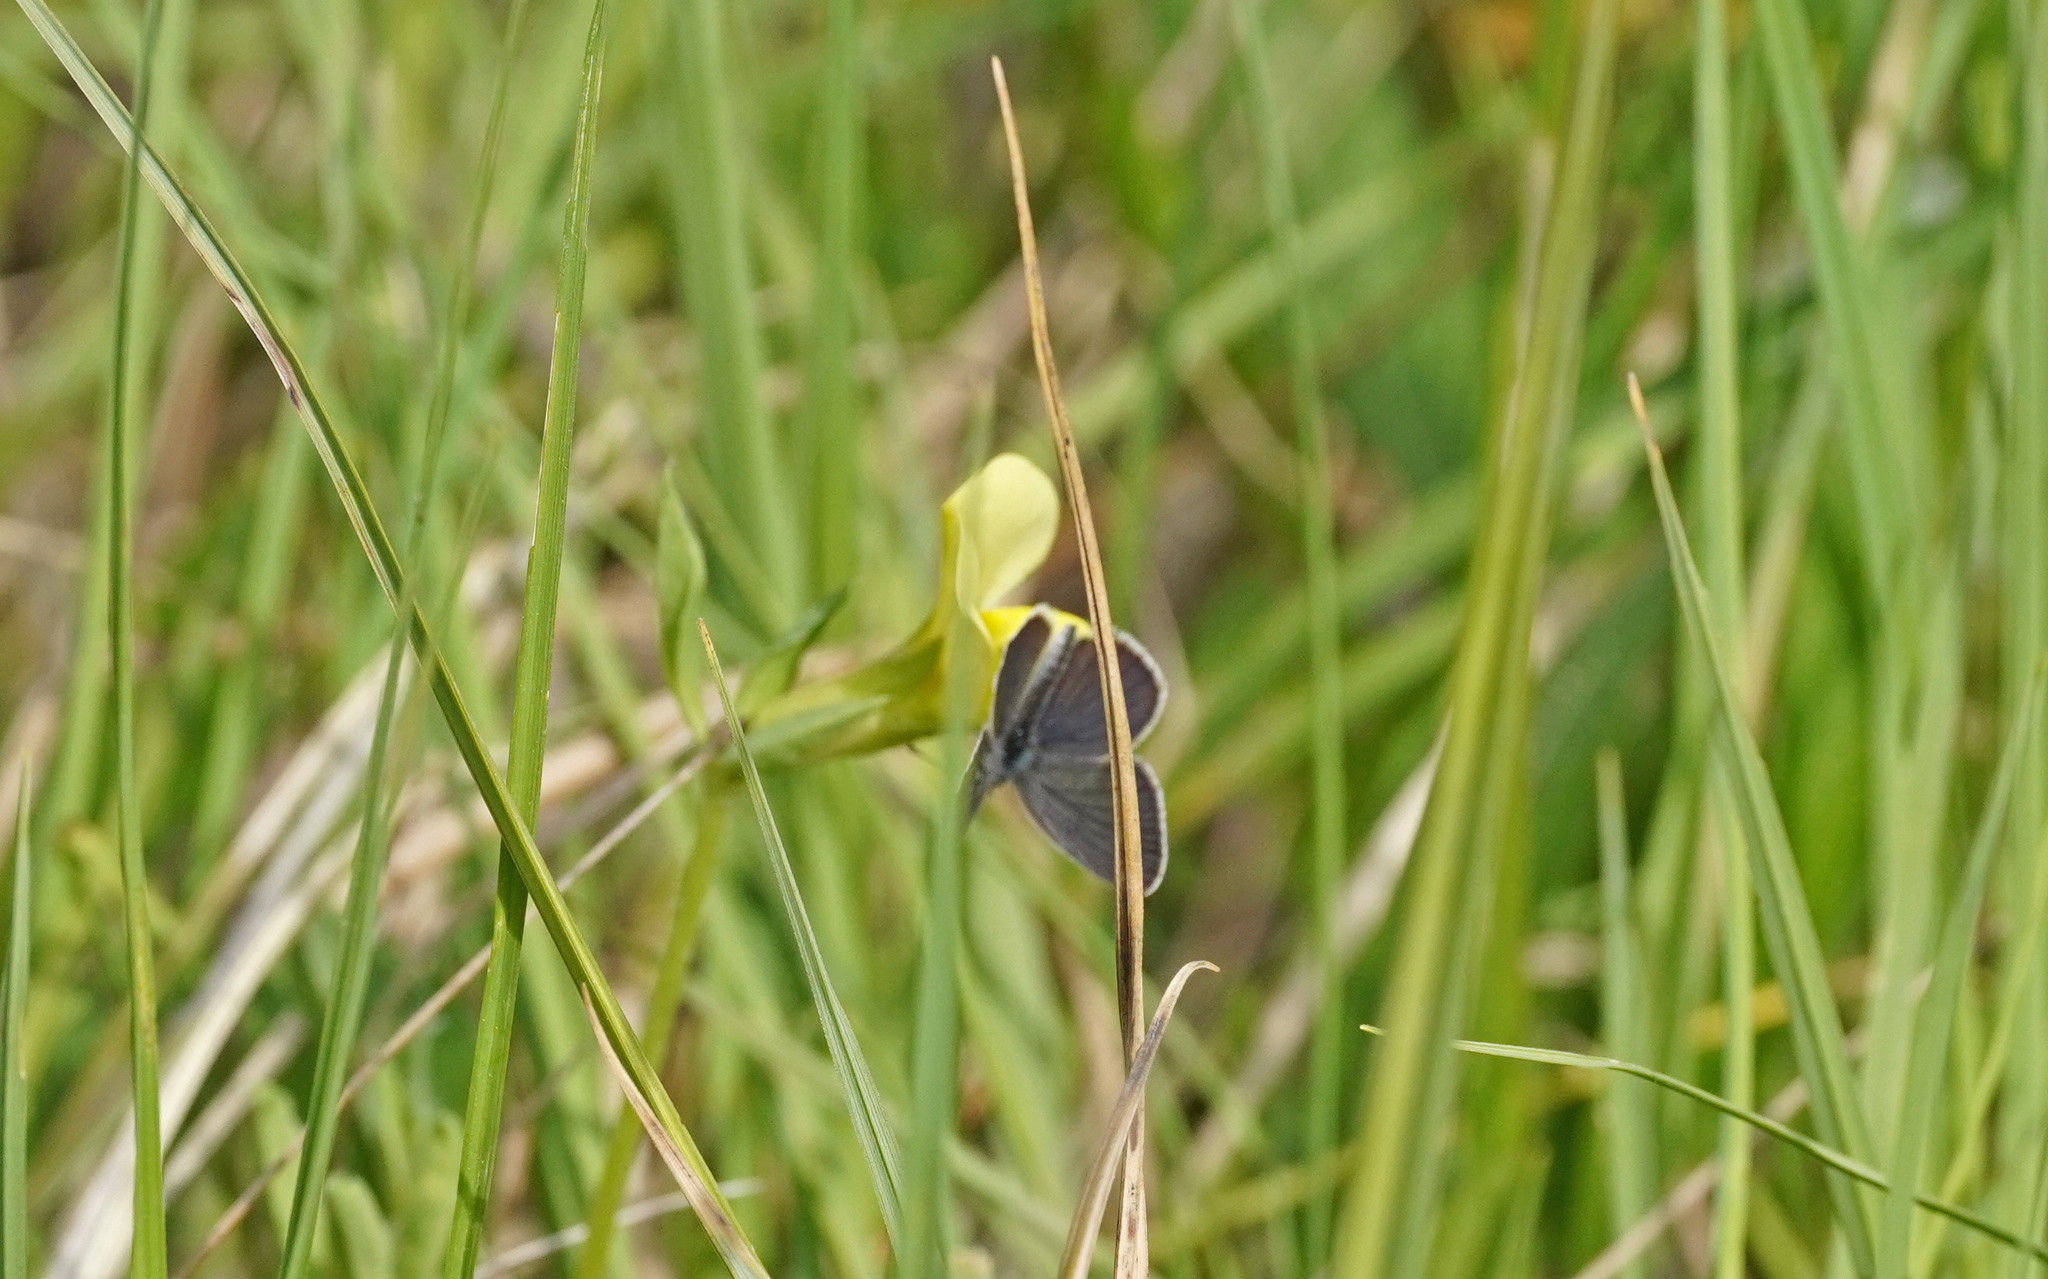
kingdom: Animalia
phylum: Arthropoda
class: Insecta
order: Lepidoptera
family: Lycaenidae
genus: Cupido
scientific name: Cupido minimus
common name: Small blue
